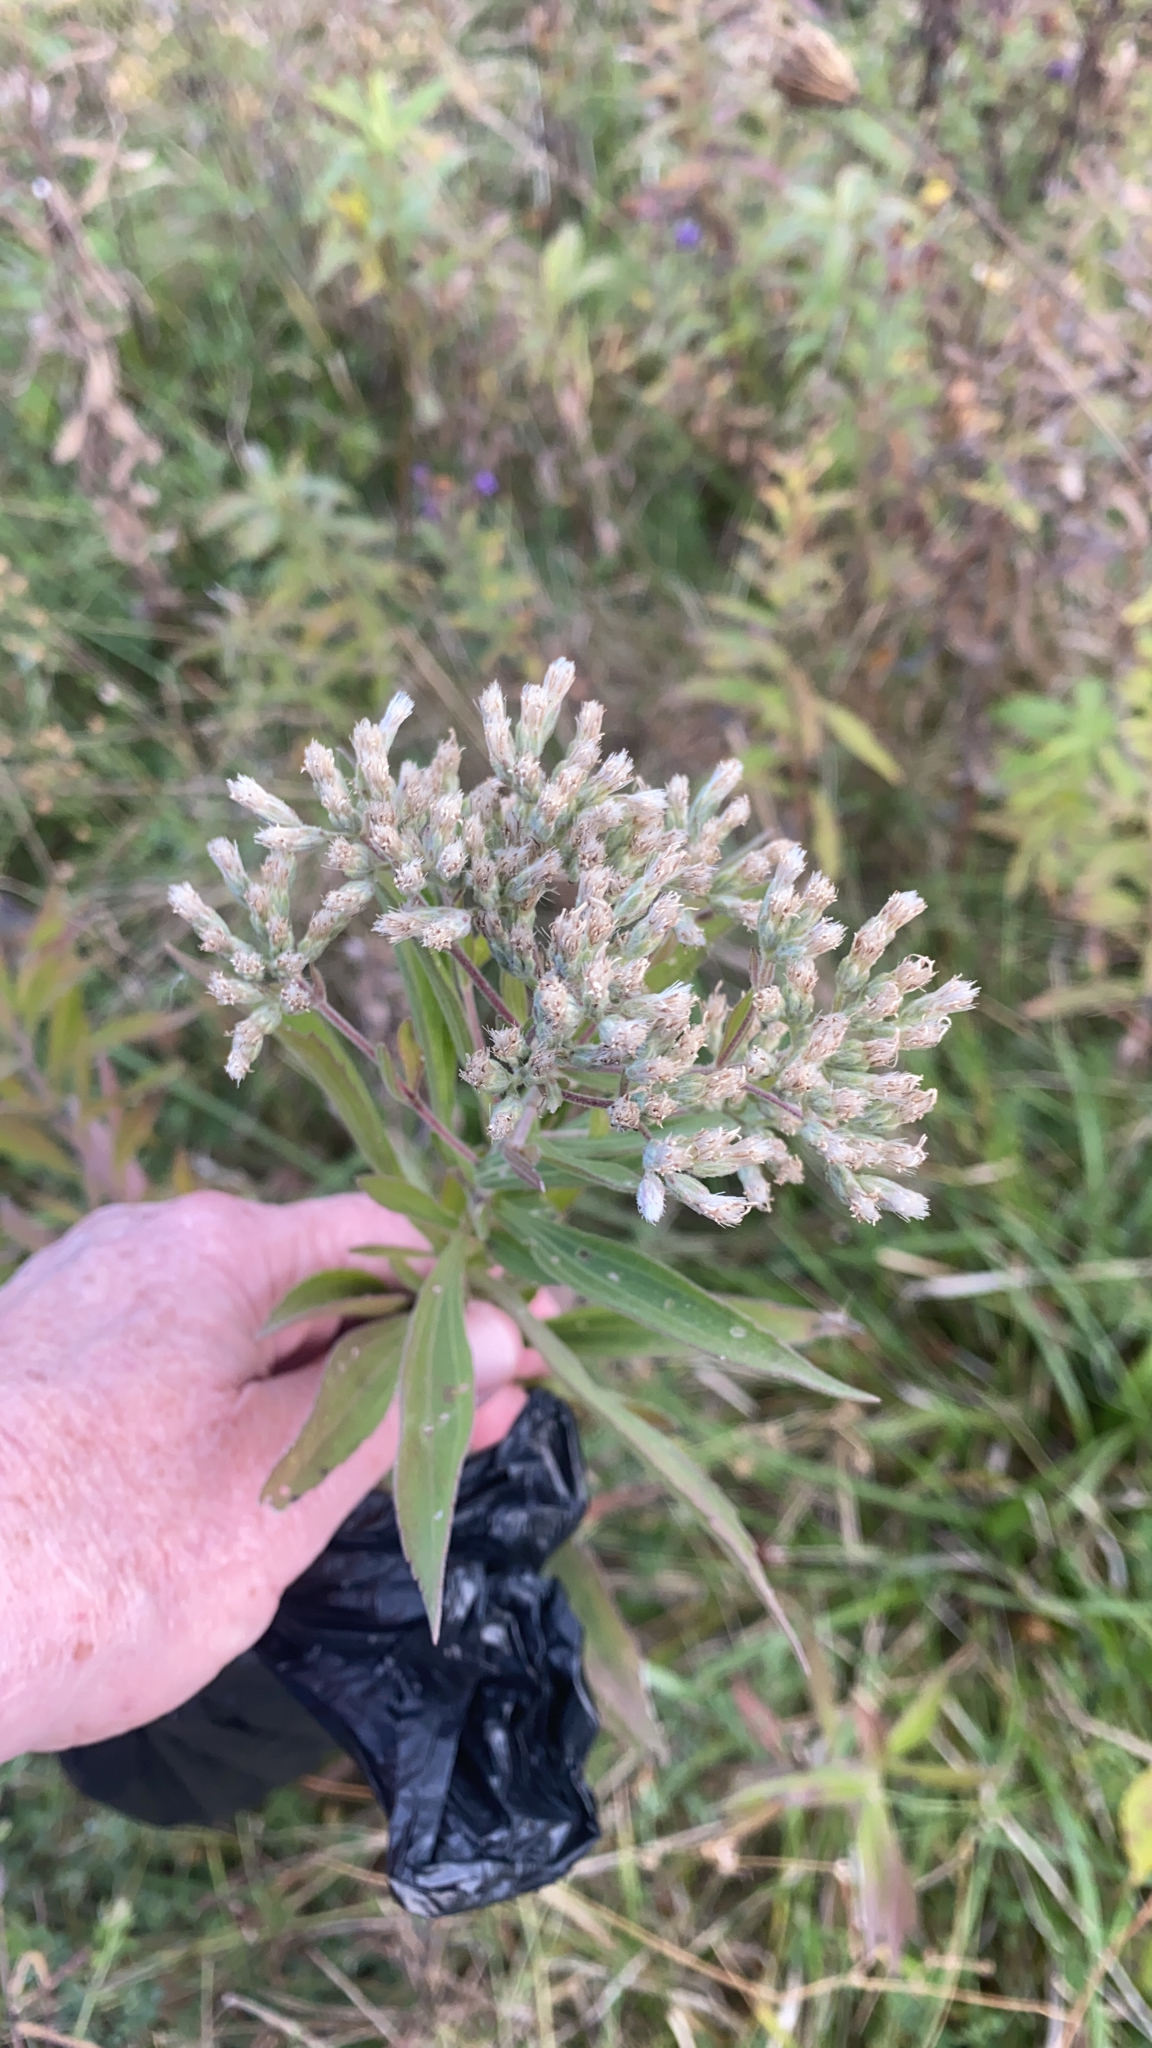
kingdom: Plantae
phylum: Tracheophyta
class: Magnoliopsida
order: Asterales
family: Asteraceae
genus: Eupatorium
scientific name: Eupatorium altissimum
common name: Tall thoroughwort
